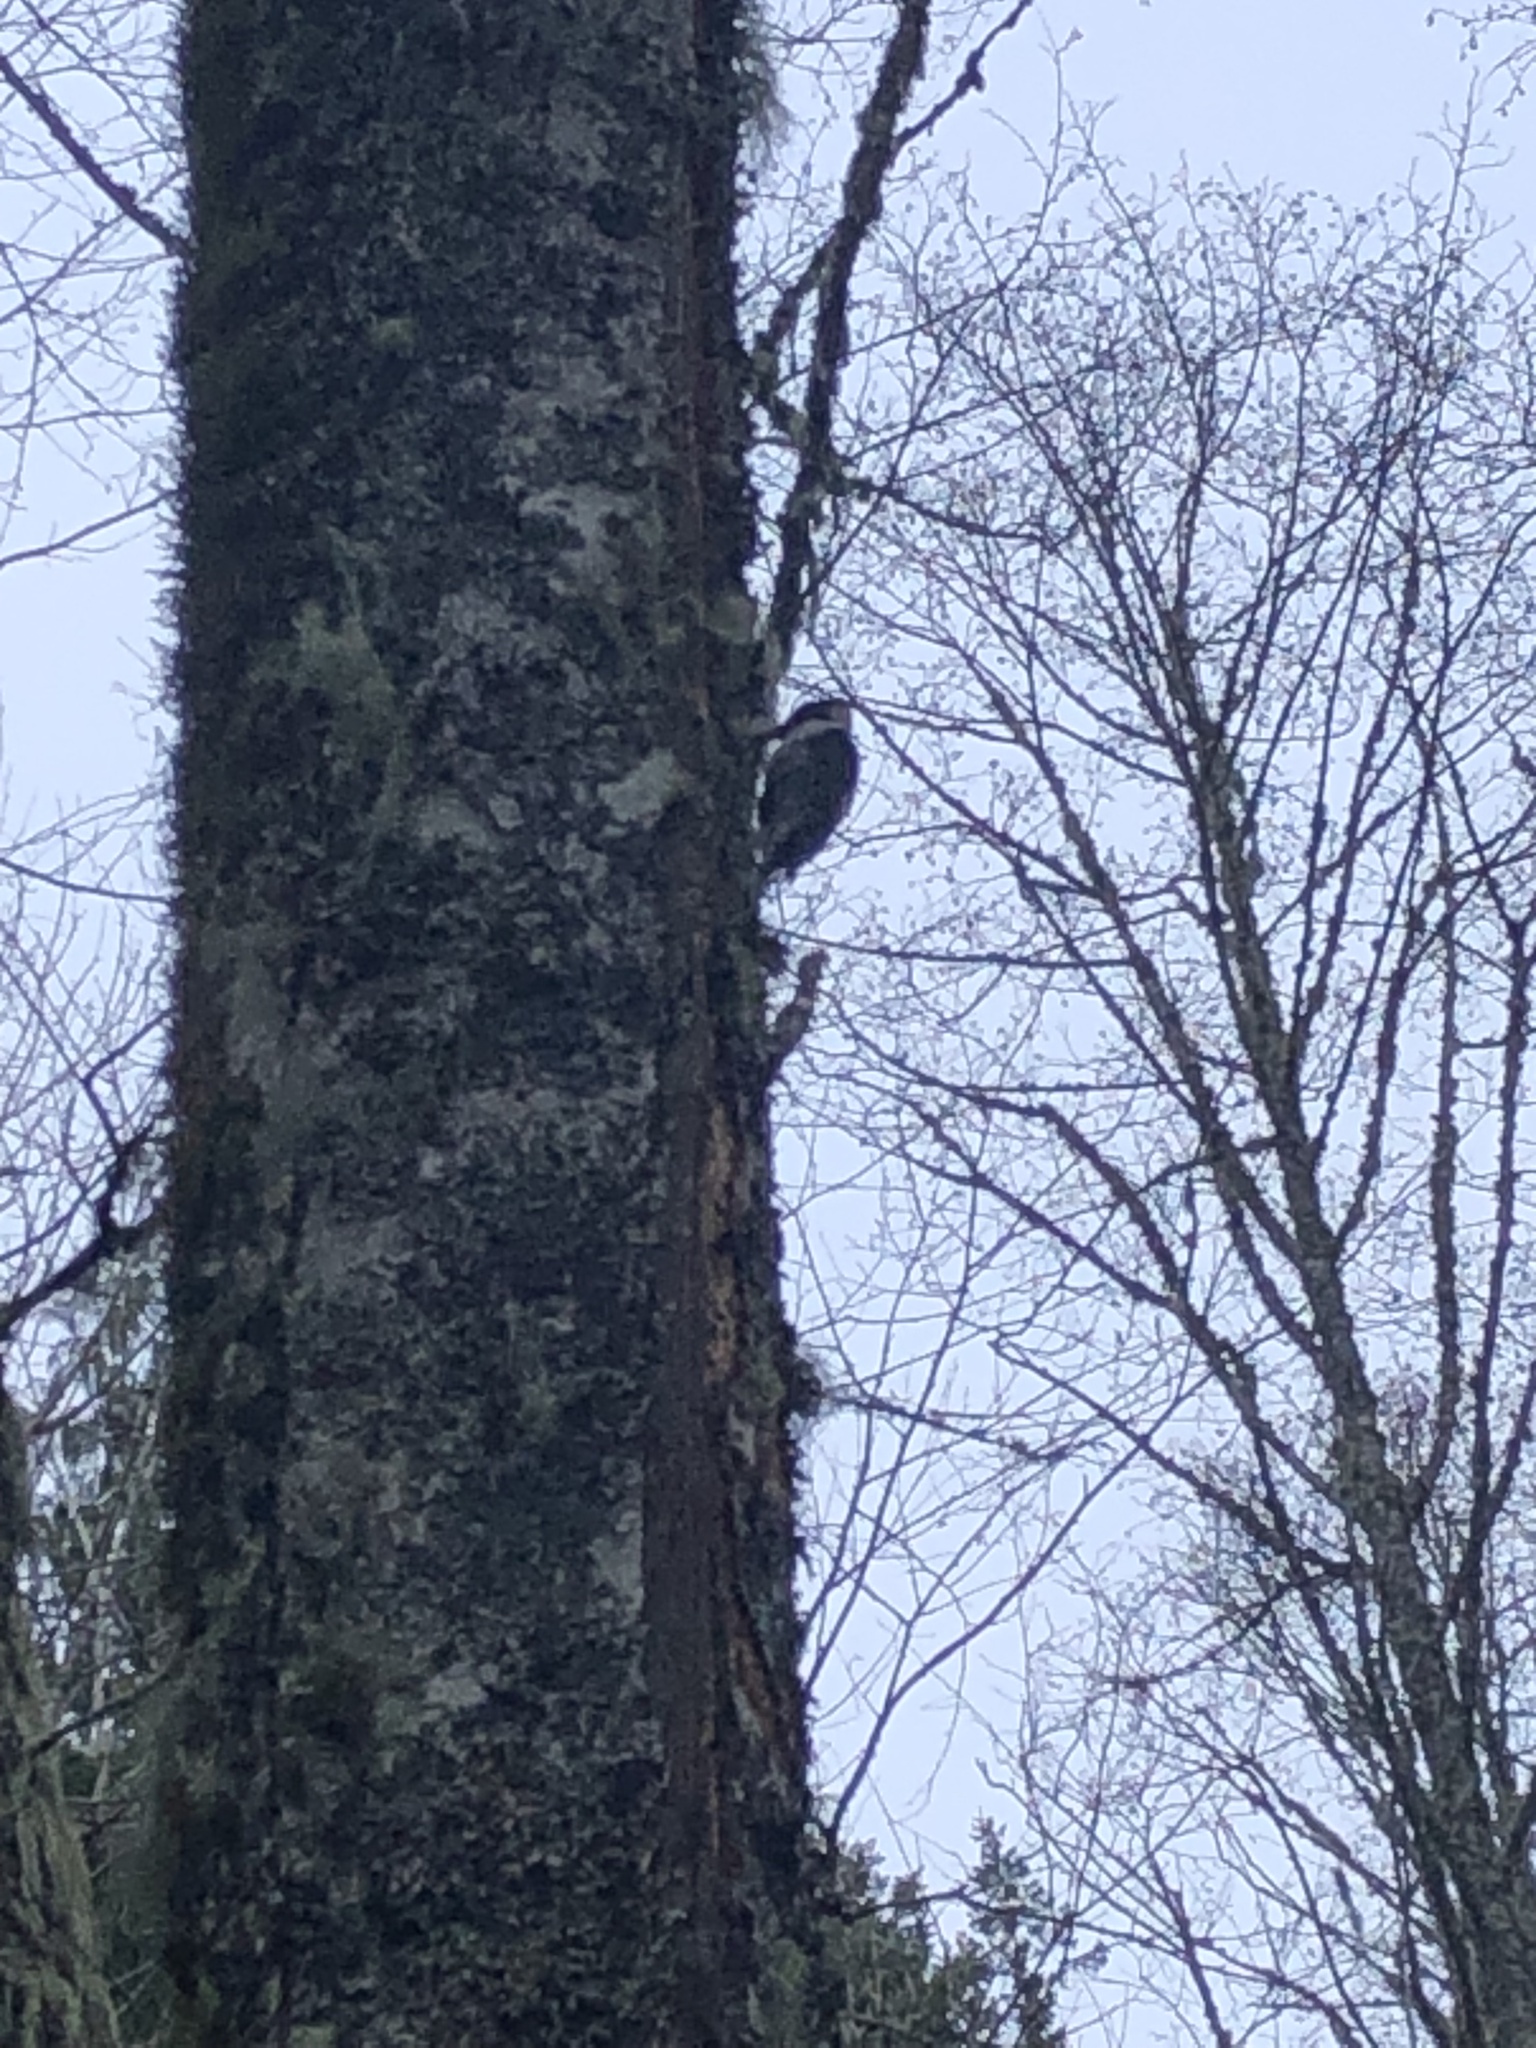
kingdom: Animalia
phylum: Chordata
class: Aves
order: Piciformes
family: Picidae
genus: Leuconotopicus
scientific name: Leuconotopicus villosus
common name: Hairy woodpecker
